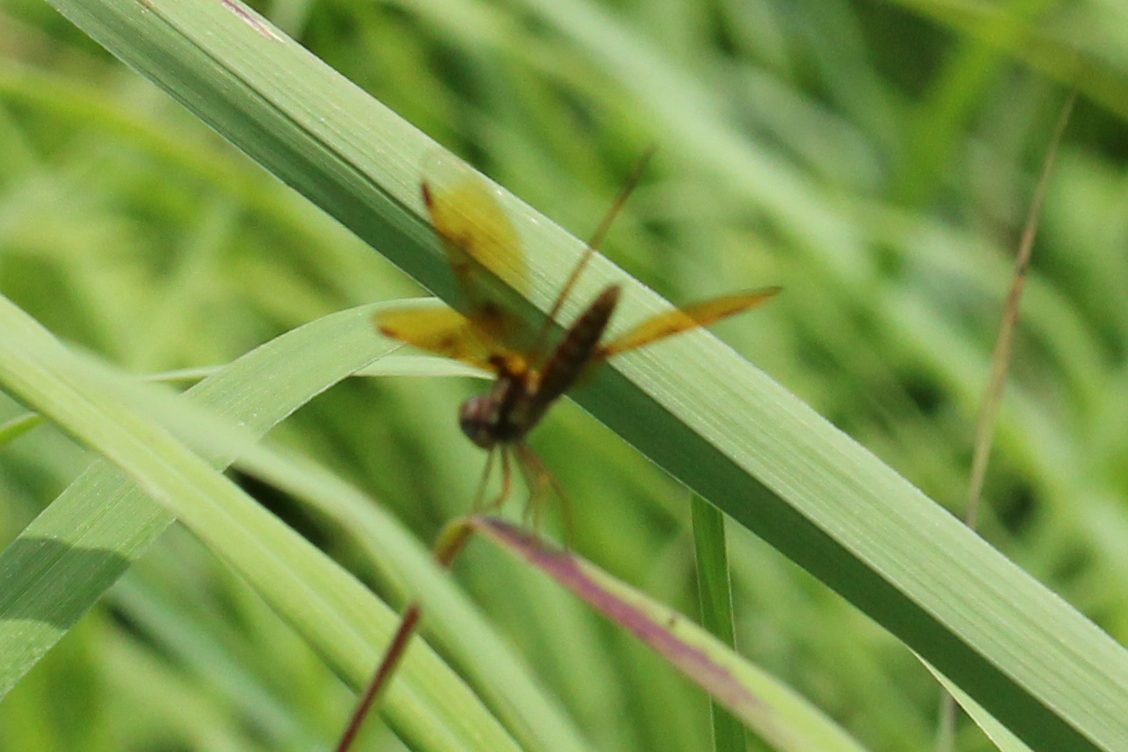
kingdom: Animalia
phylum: Arthropoda
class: Insecta
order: Odonata
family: Libellulidae
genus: Perithemis
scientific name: Perithemis tenera
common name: Eastern amberwing
